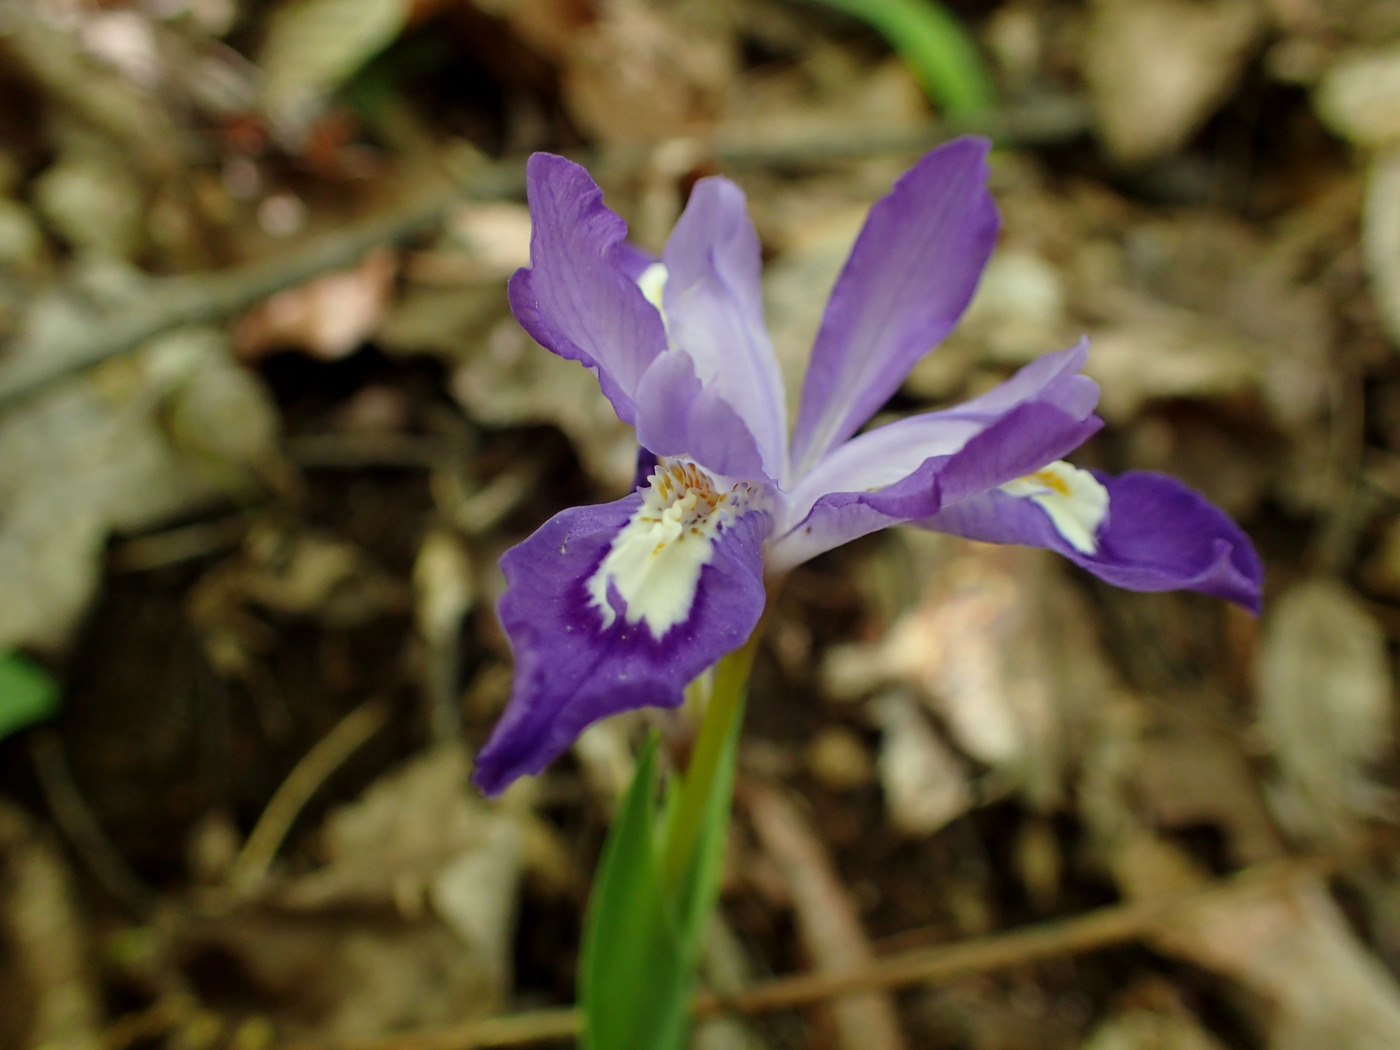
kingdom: Plantae
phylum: Tracheophyta
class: Liliopsida
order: Asparagales
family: Iridaceae
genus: Iris
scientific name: Iris cristata
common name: Crested iris
